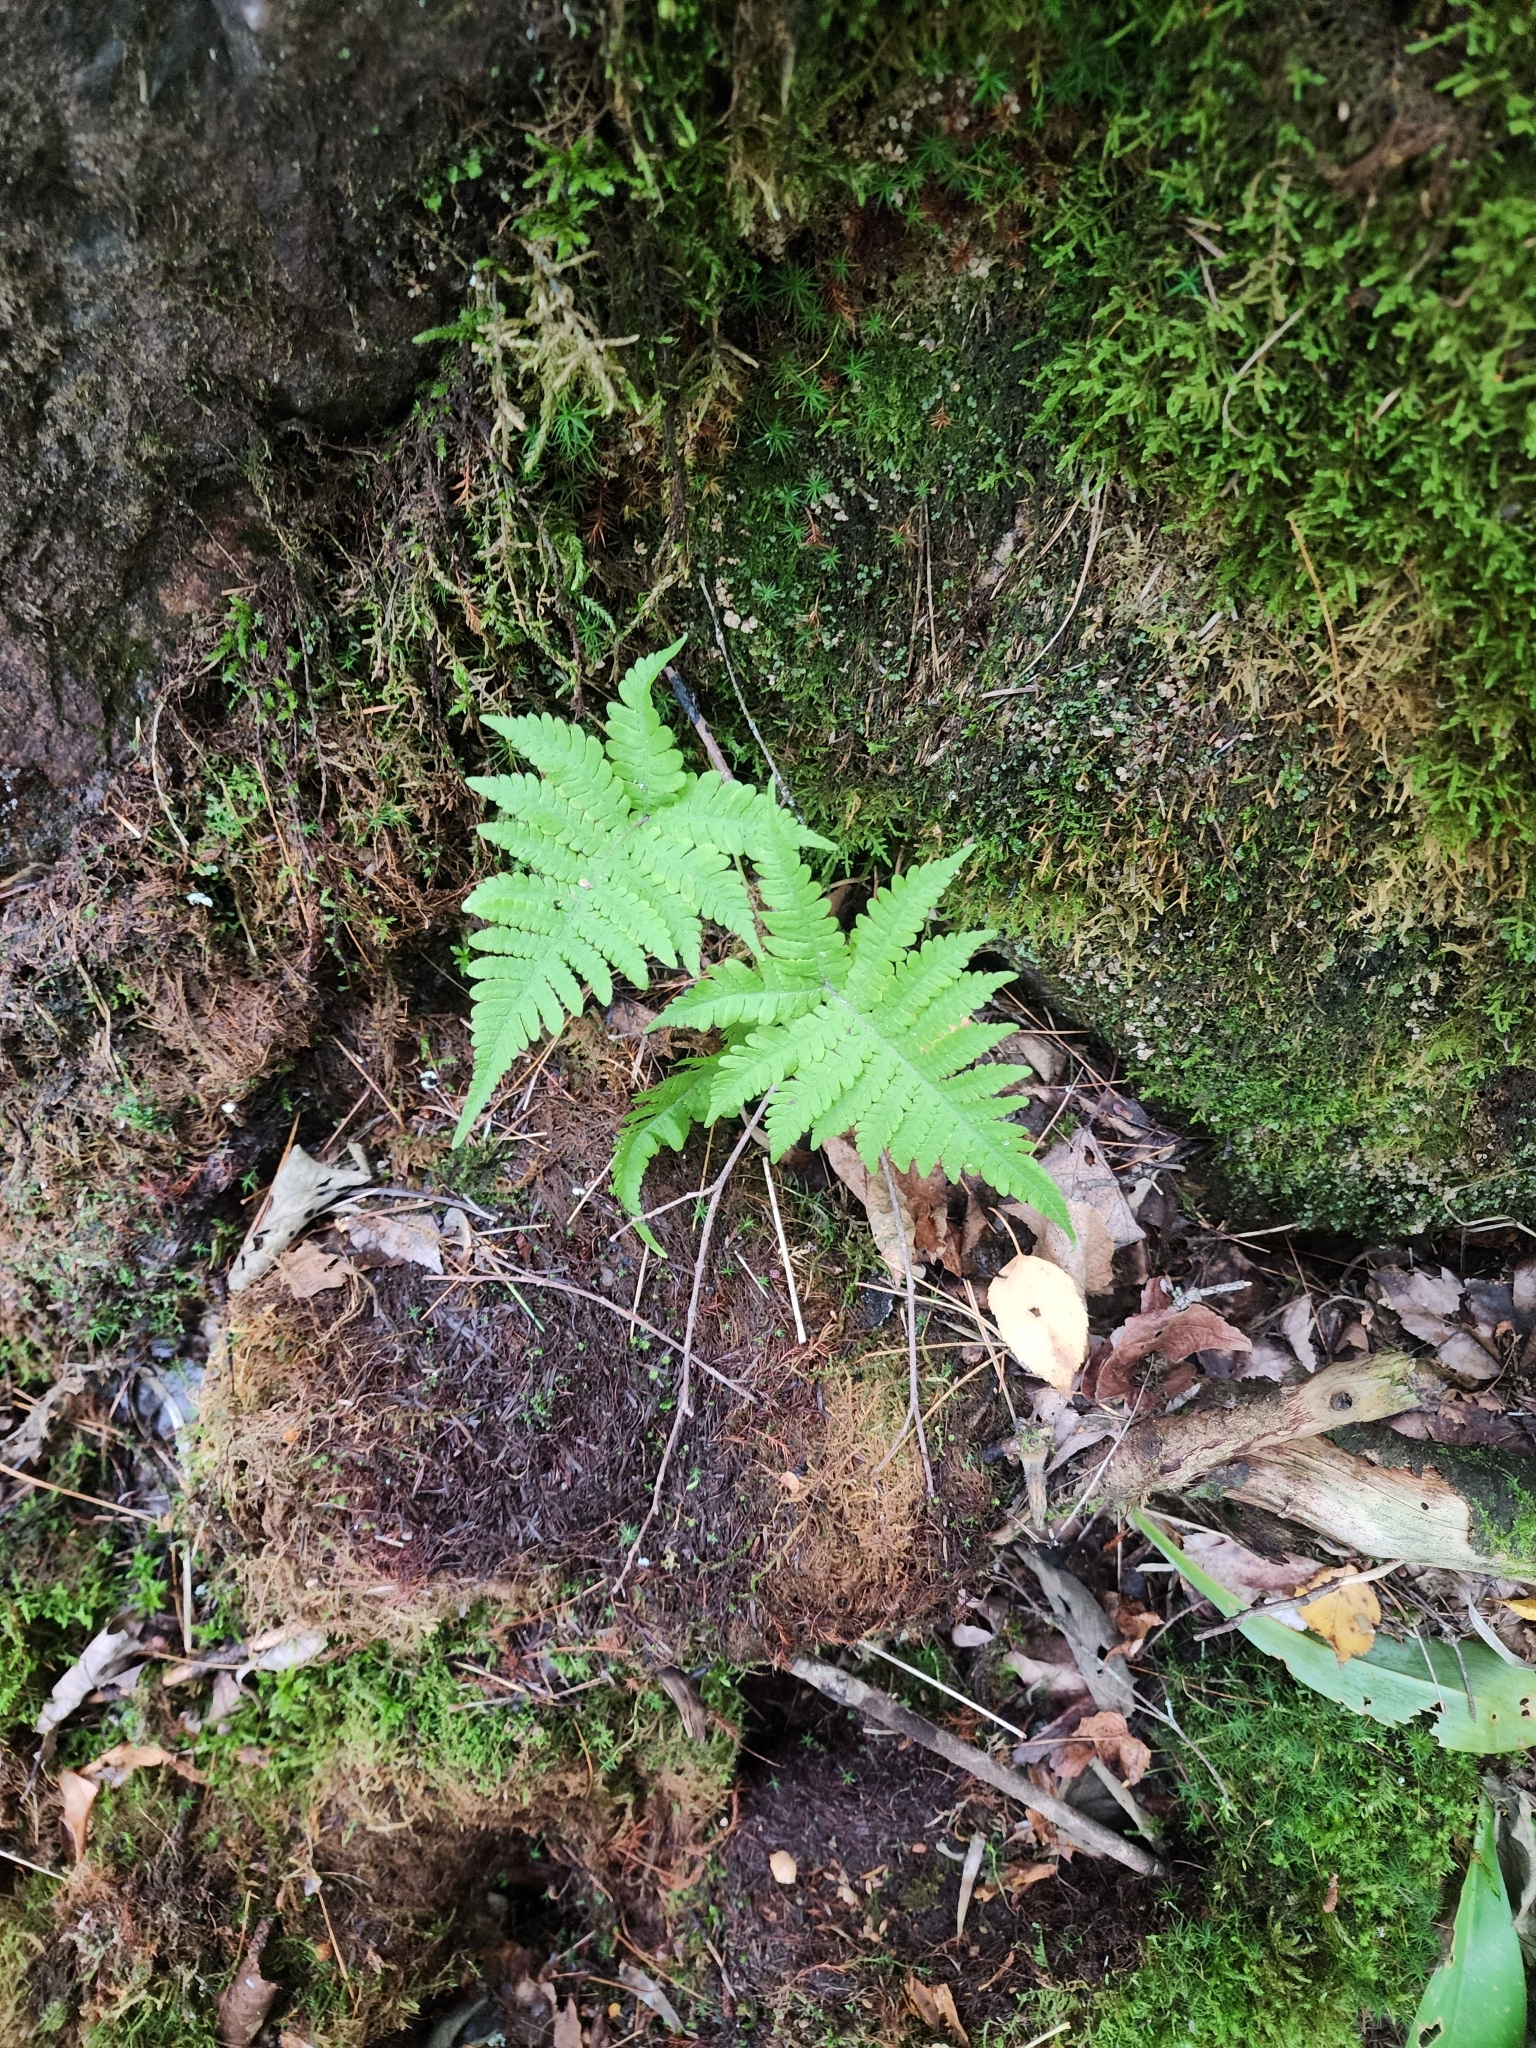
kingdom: Plantae
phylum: Tracheophyta
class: Polypodiopsida
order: Polypodiales
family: Thelypteridaceae
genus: Phegopteris
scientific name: Phegopteris connectilis
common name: Beech fern
